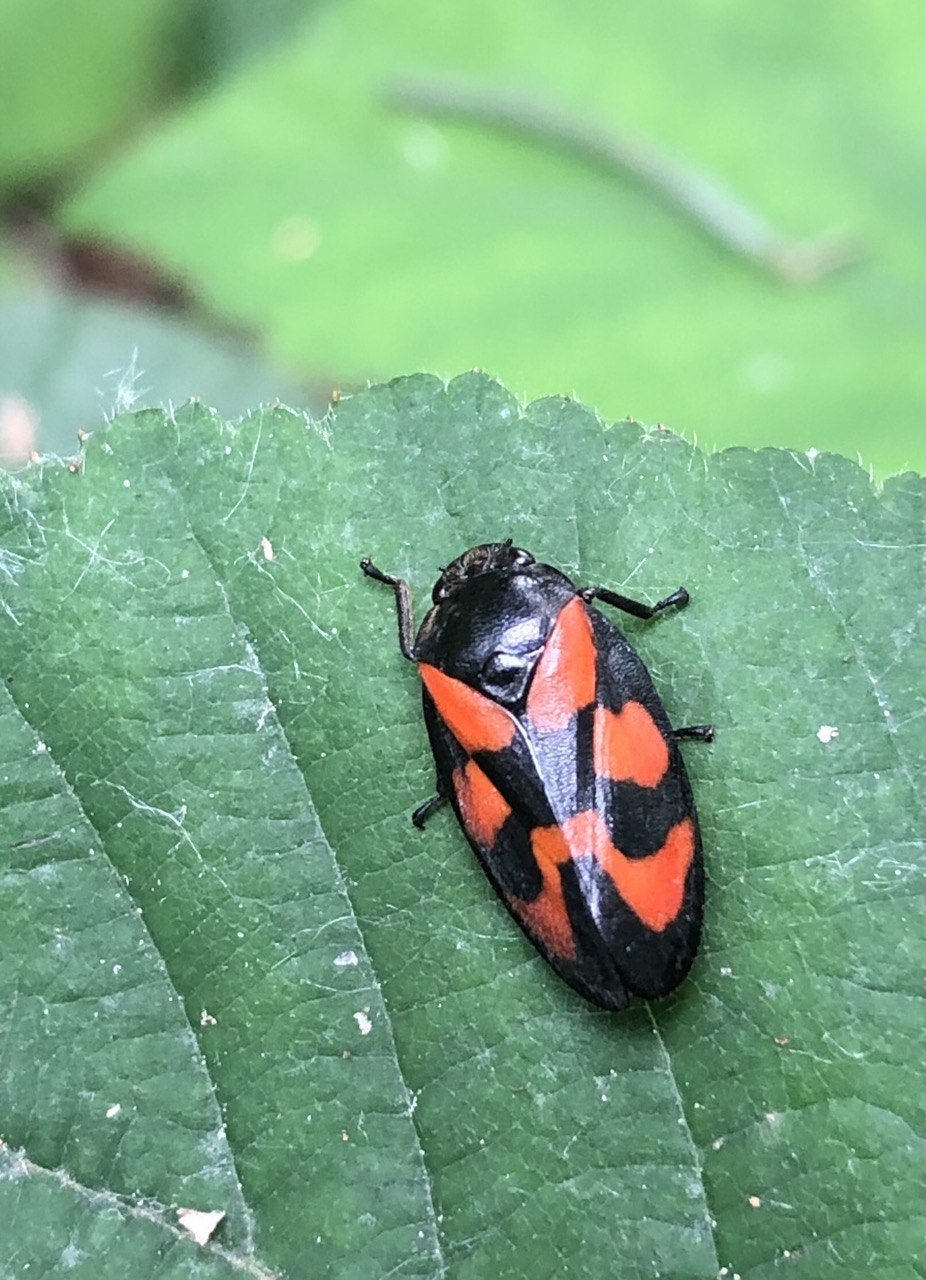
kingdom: Animalia
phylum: Arthropoda
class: Insecta
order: Hemiptera
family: Cercopidae
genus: Cercopis
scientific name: Cercopis vulnerata
